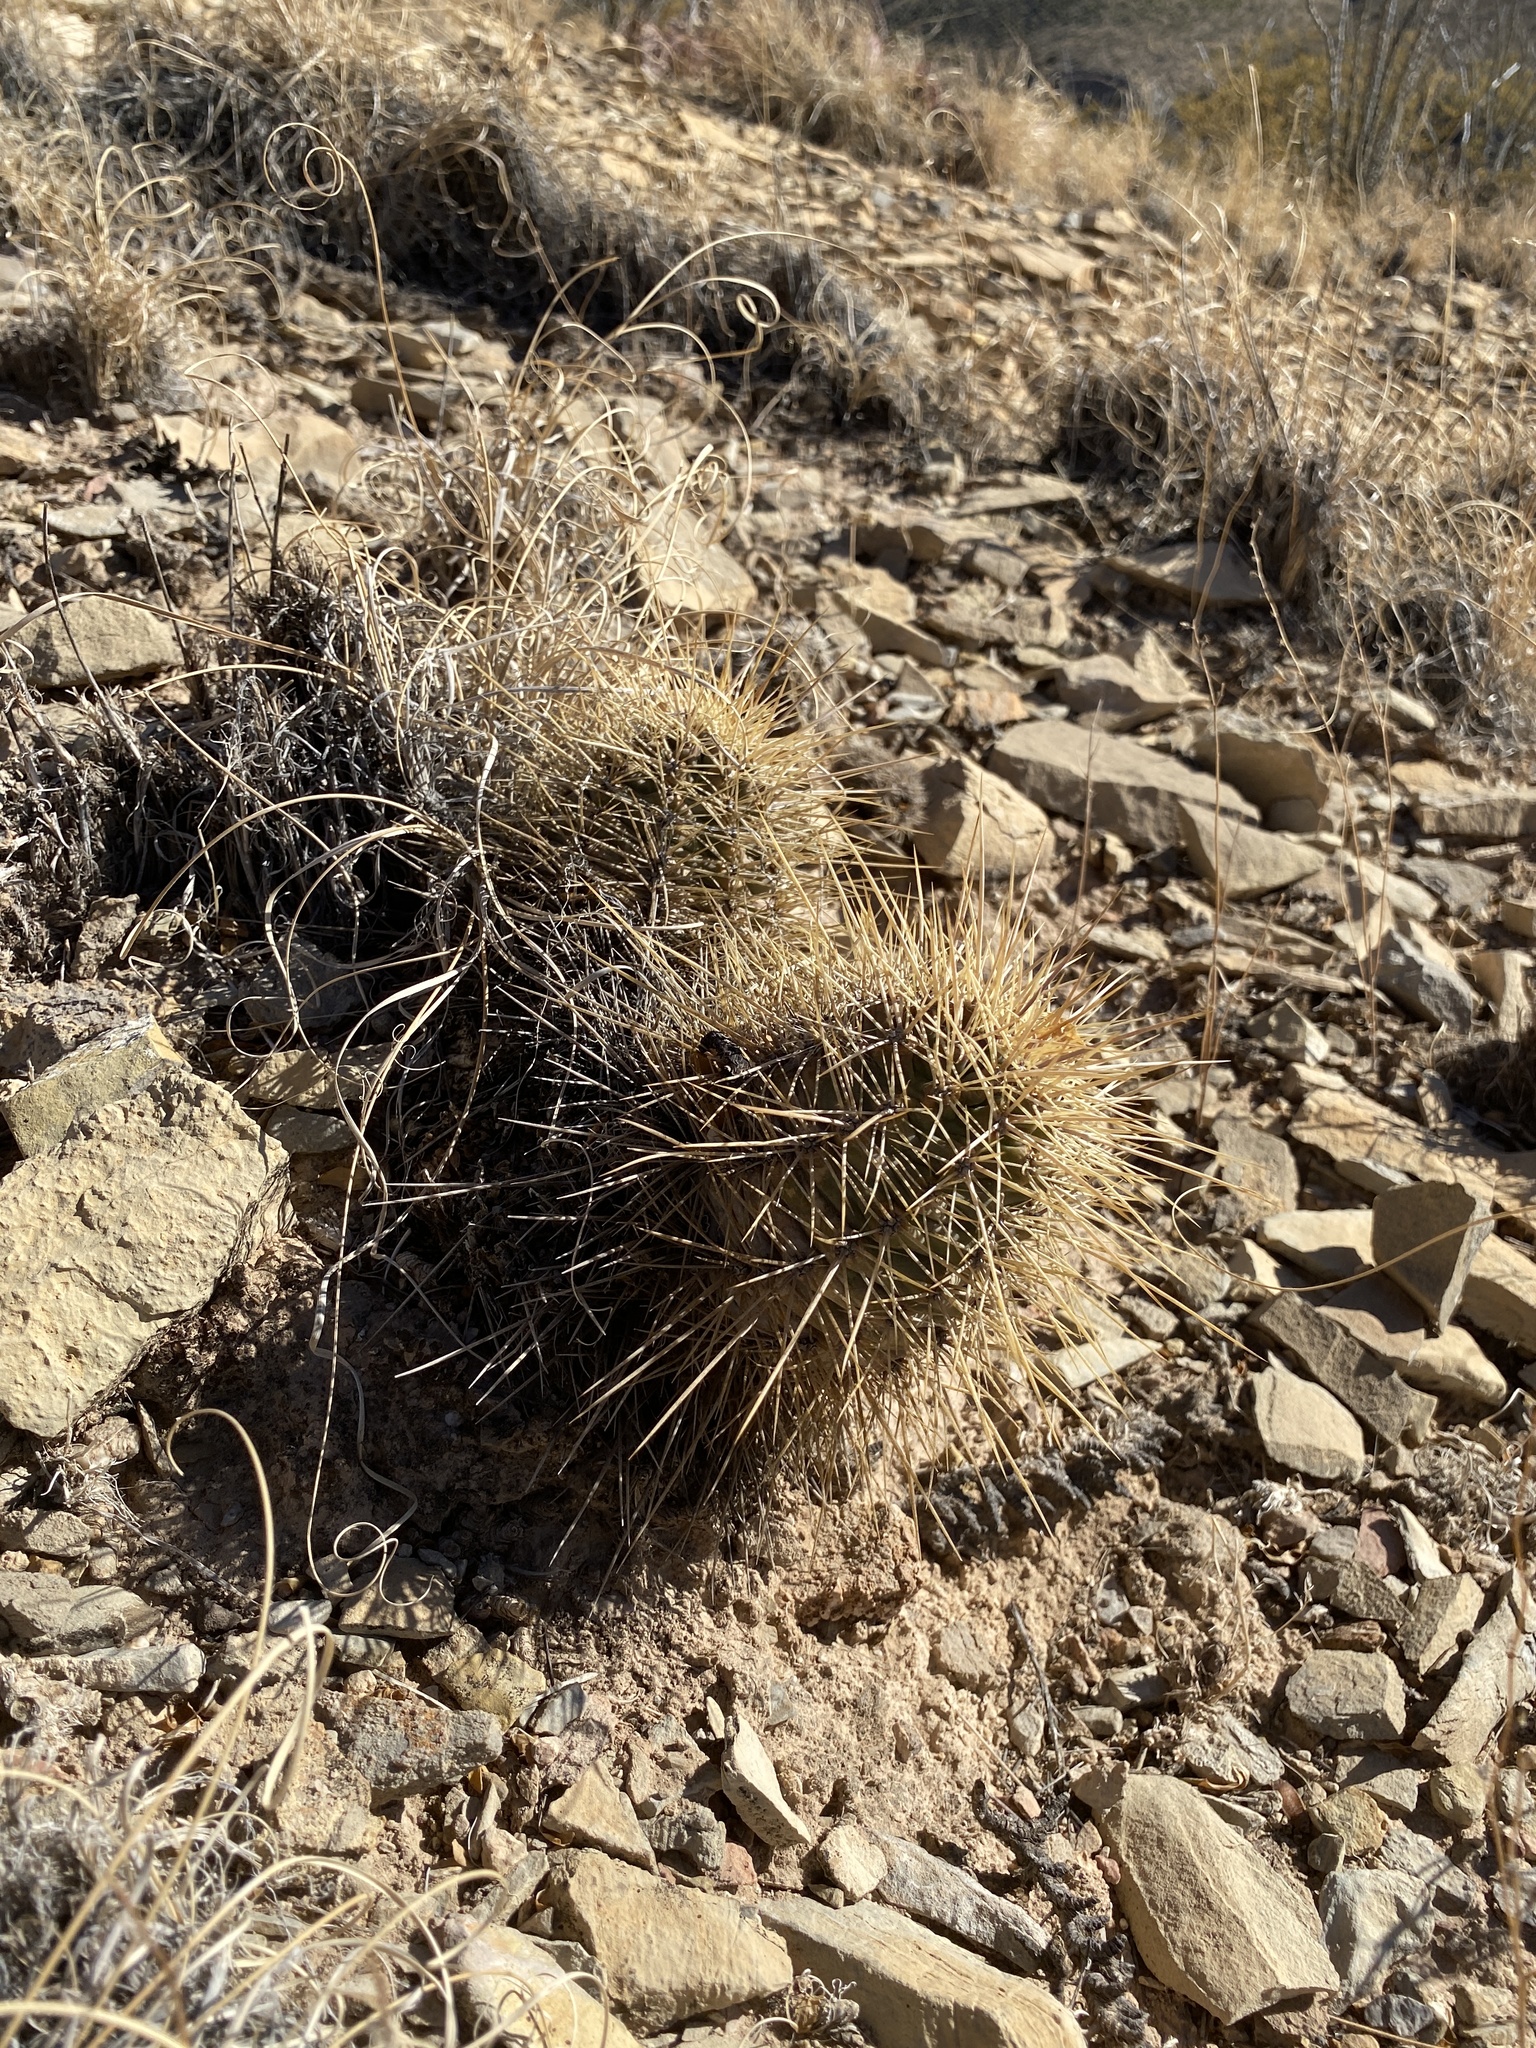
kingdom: Plantae
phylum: Tracheophyta
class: Magnoliopsida
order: Caryophyllales
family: Cactaceae
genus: Echinocereus
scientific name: Echinocereus coccineus
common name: Scarlet hedgehog cactus
